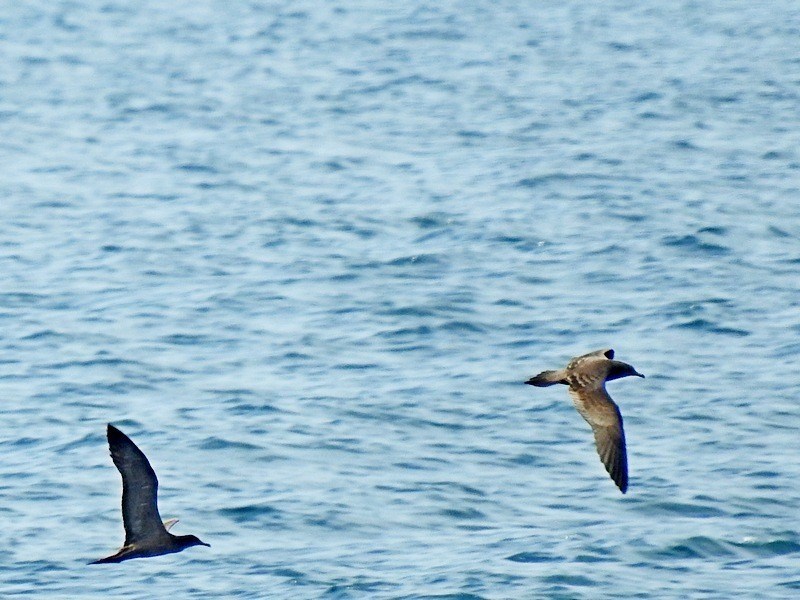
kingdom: Animalia
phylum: Chordata
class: Aves
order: Procellariiformes
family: Procellariidae
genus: Puffinus
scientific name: Puffinus pacificus
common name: Wedge-tailed shearwater
